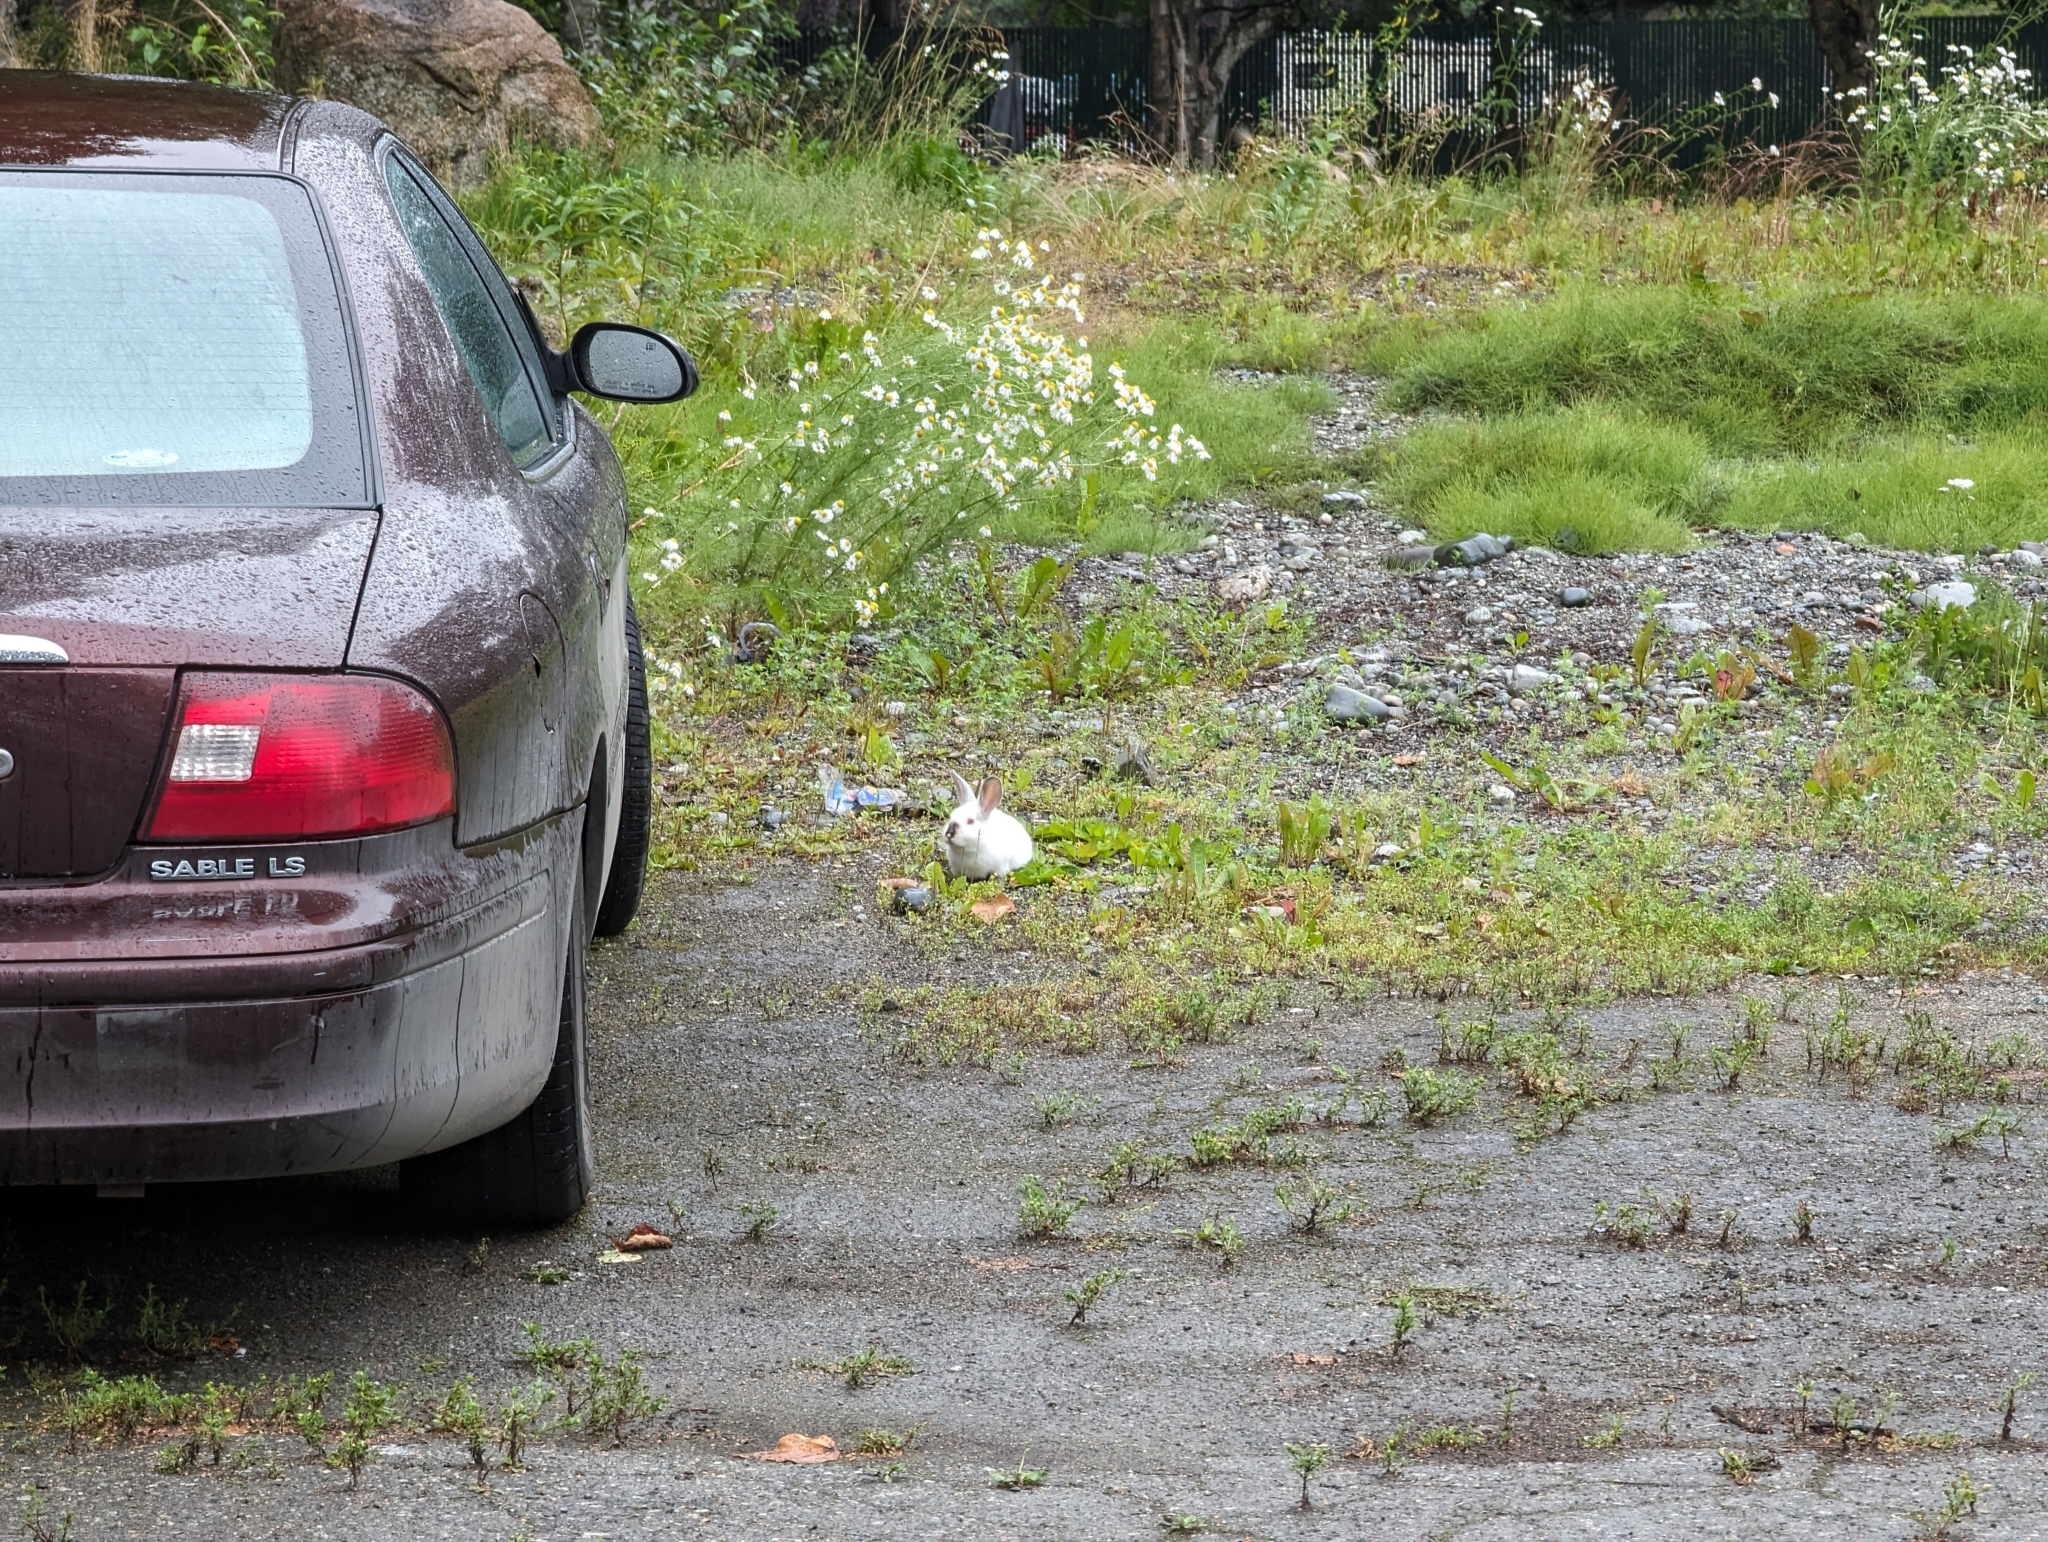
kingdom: Animalia
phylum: Chordata
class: Mammalia
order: Lagomorpha
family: Leporidae
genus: Oryctolagus
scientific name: Oryctolagus cuniculus
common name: European rabbit
